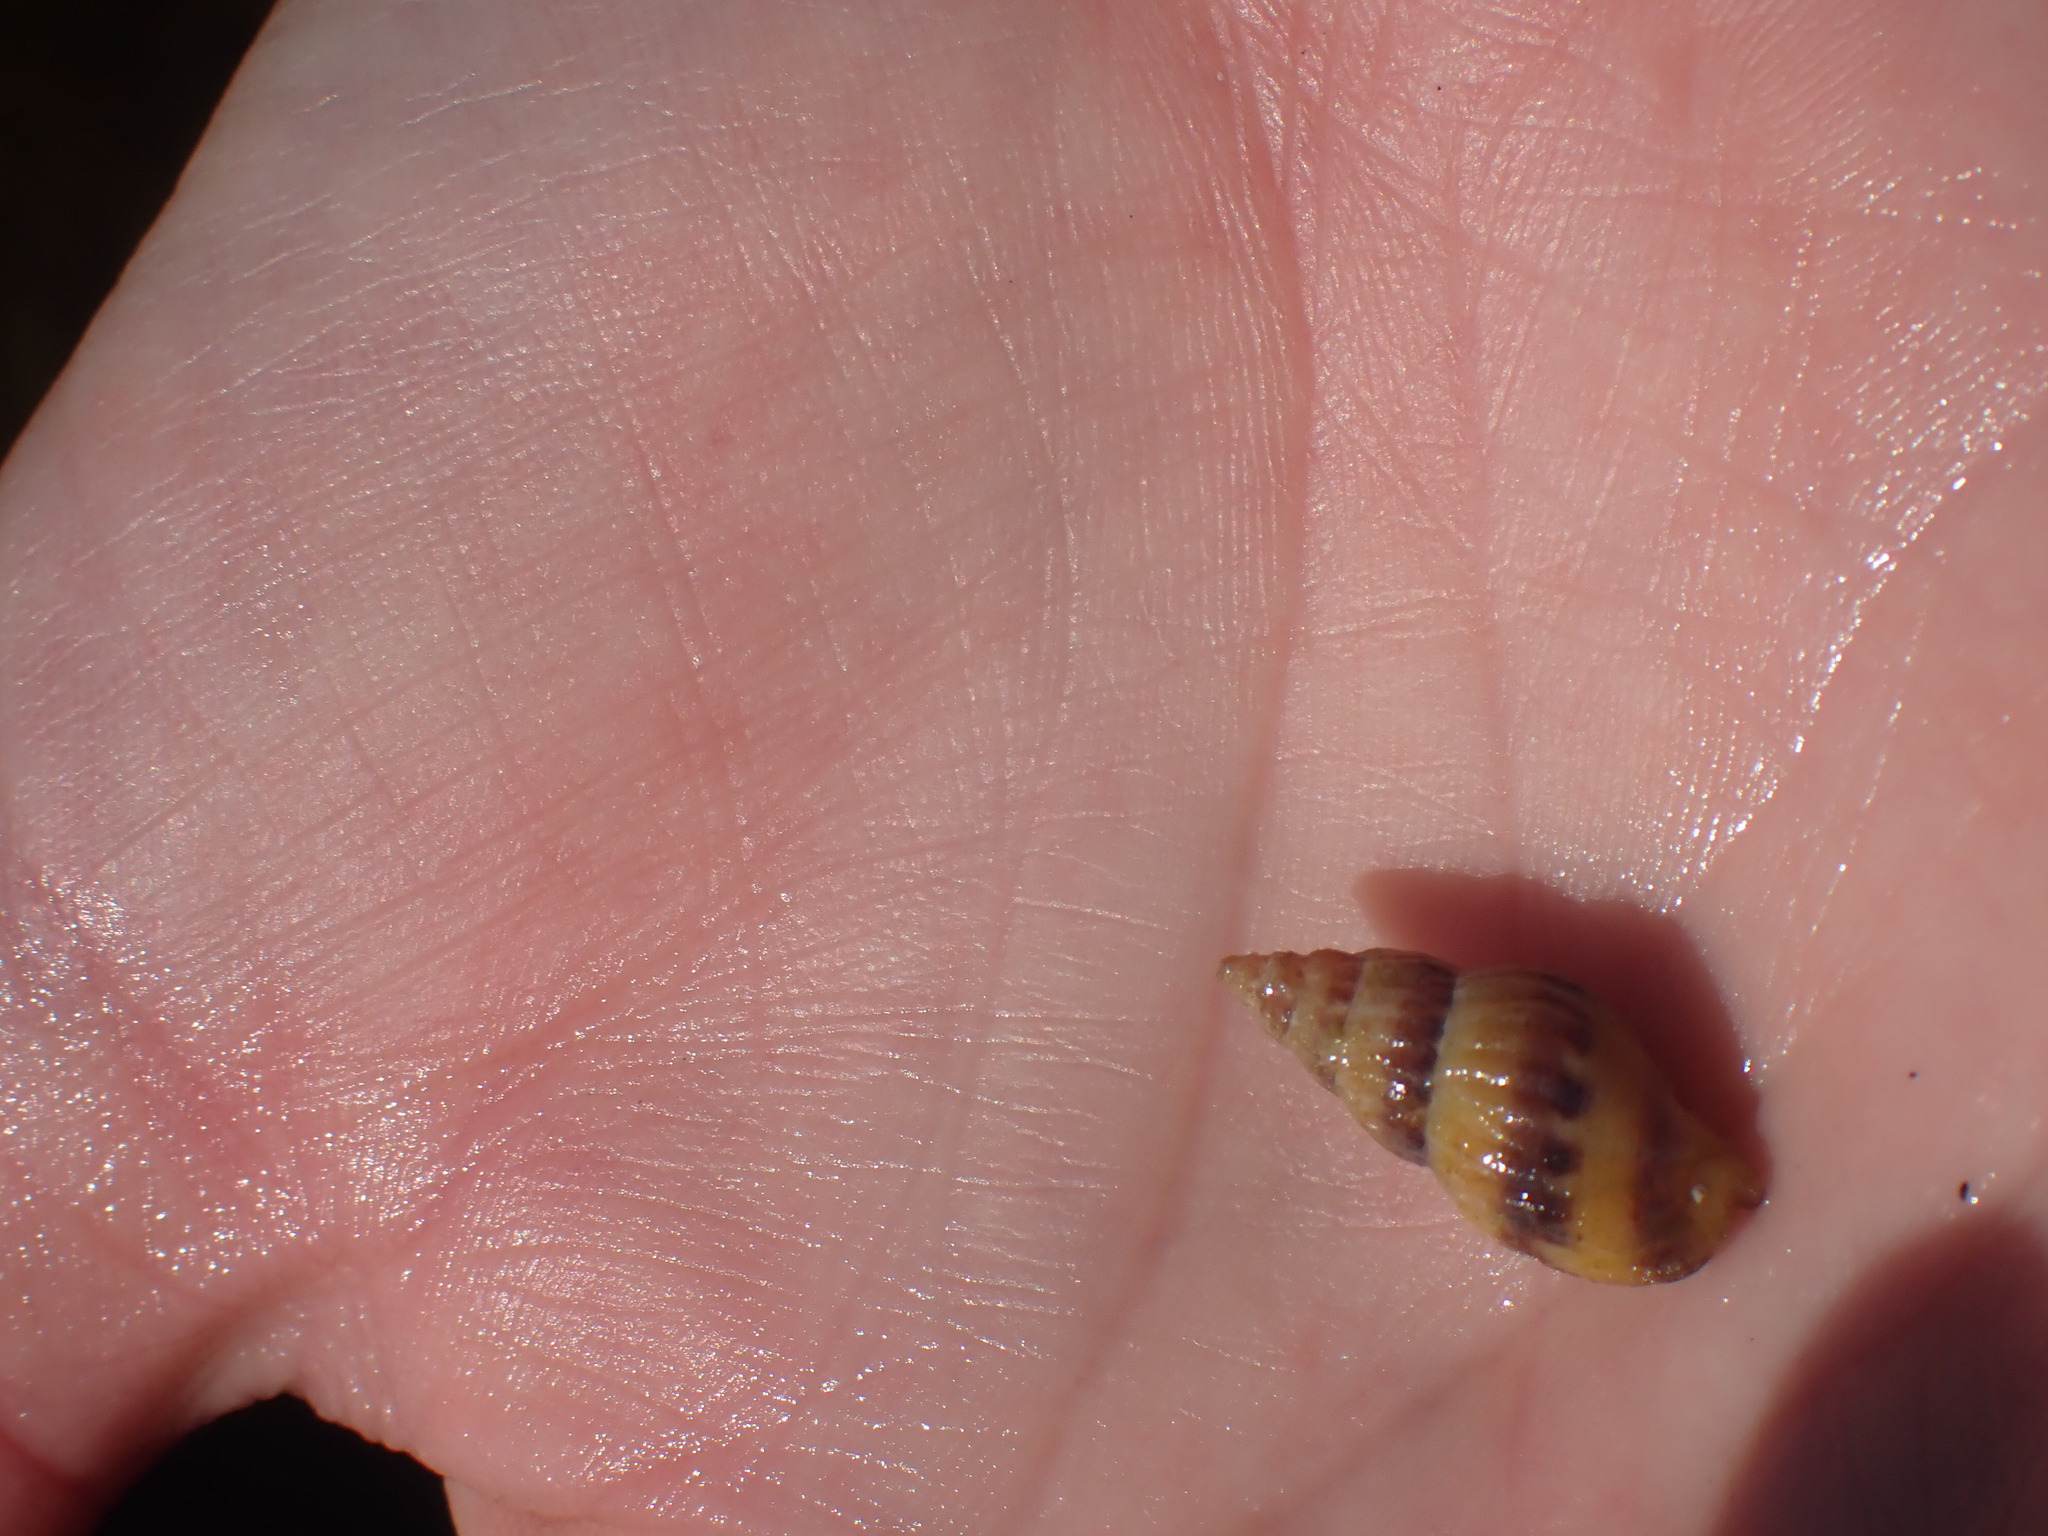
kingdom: Animalia
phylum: Mollusca
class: Gastropoda
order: Neogastropoda
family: Columbellidae
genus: Amphissa
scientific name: Amphissa columbiana
